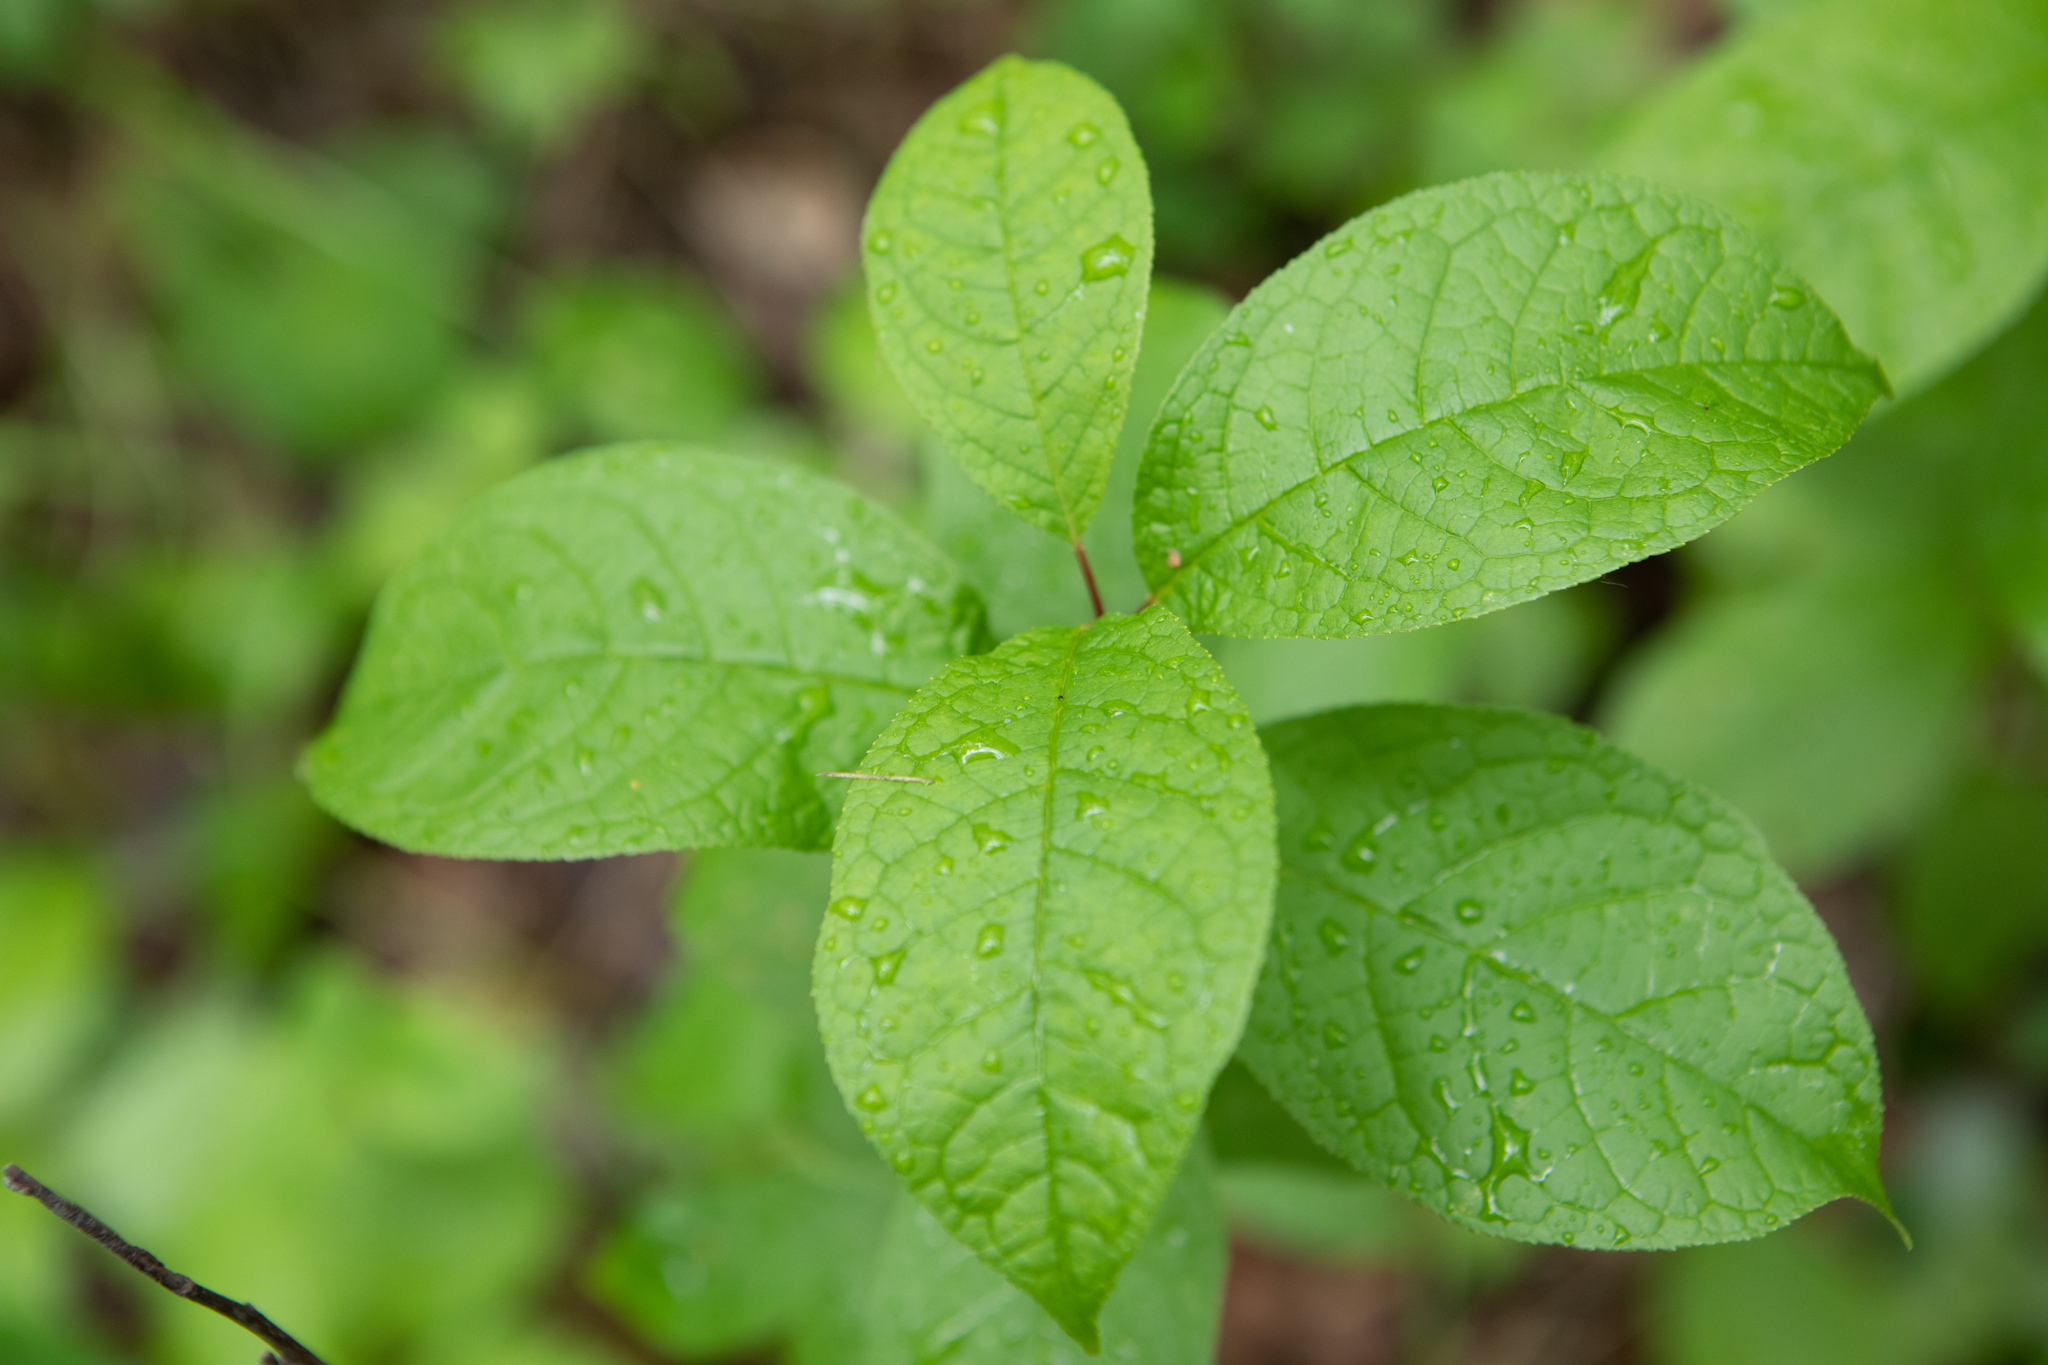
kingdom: Plantae
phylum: Tracheophyta
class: Magnoliopsida
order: Rosales
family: Rosaceae
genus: Prunus
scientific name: Prunus padus
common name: Bird cherry
